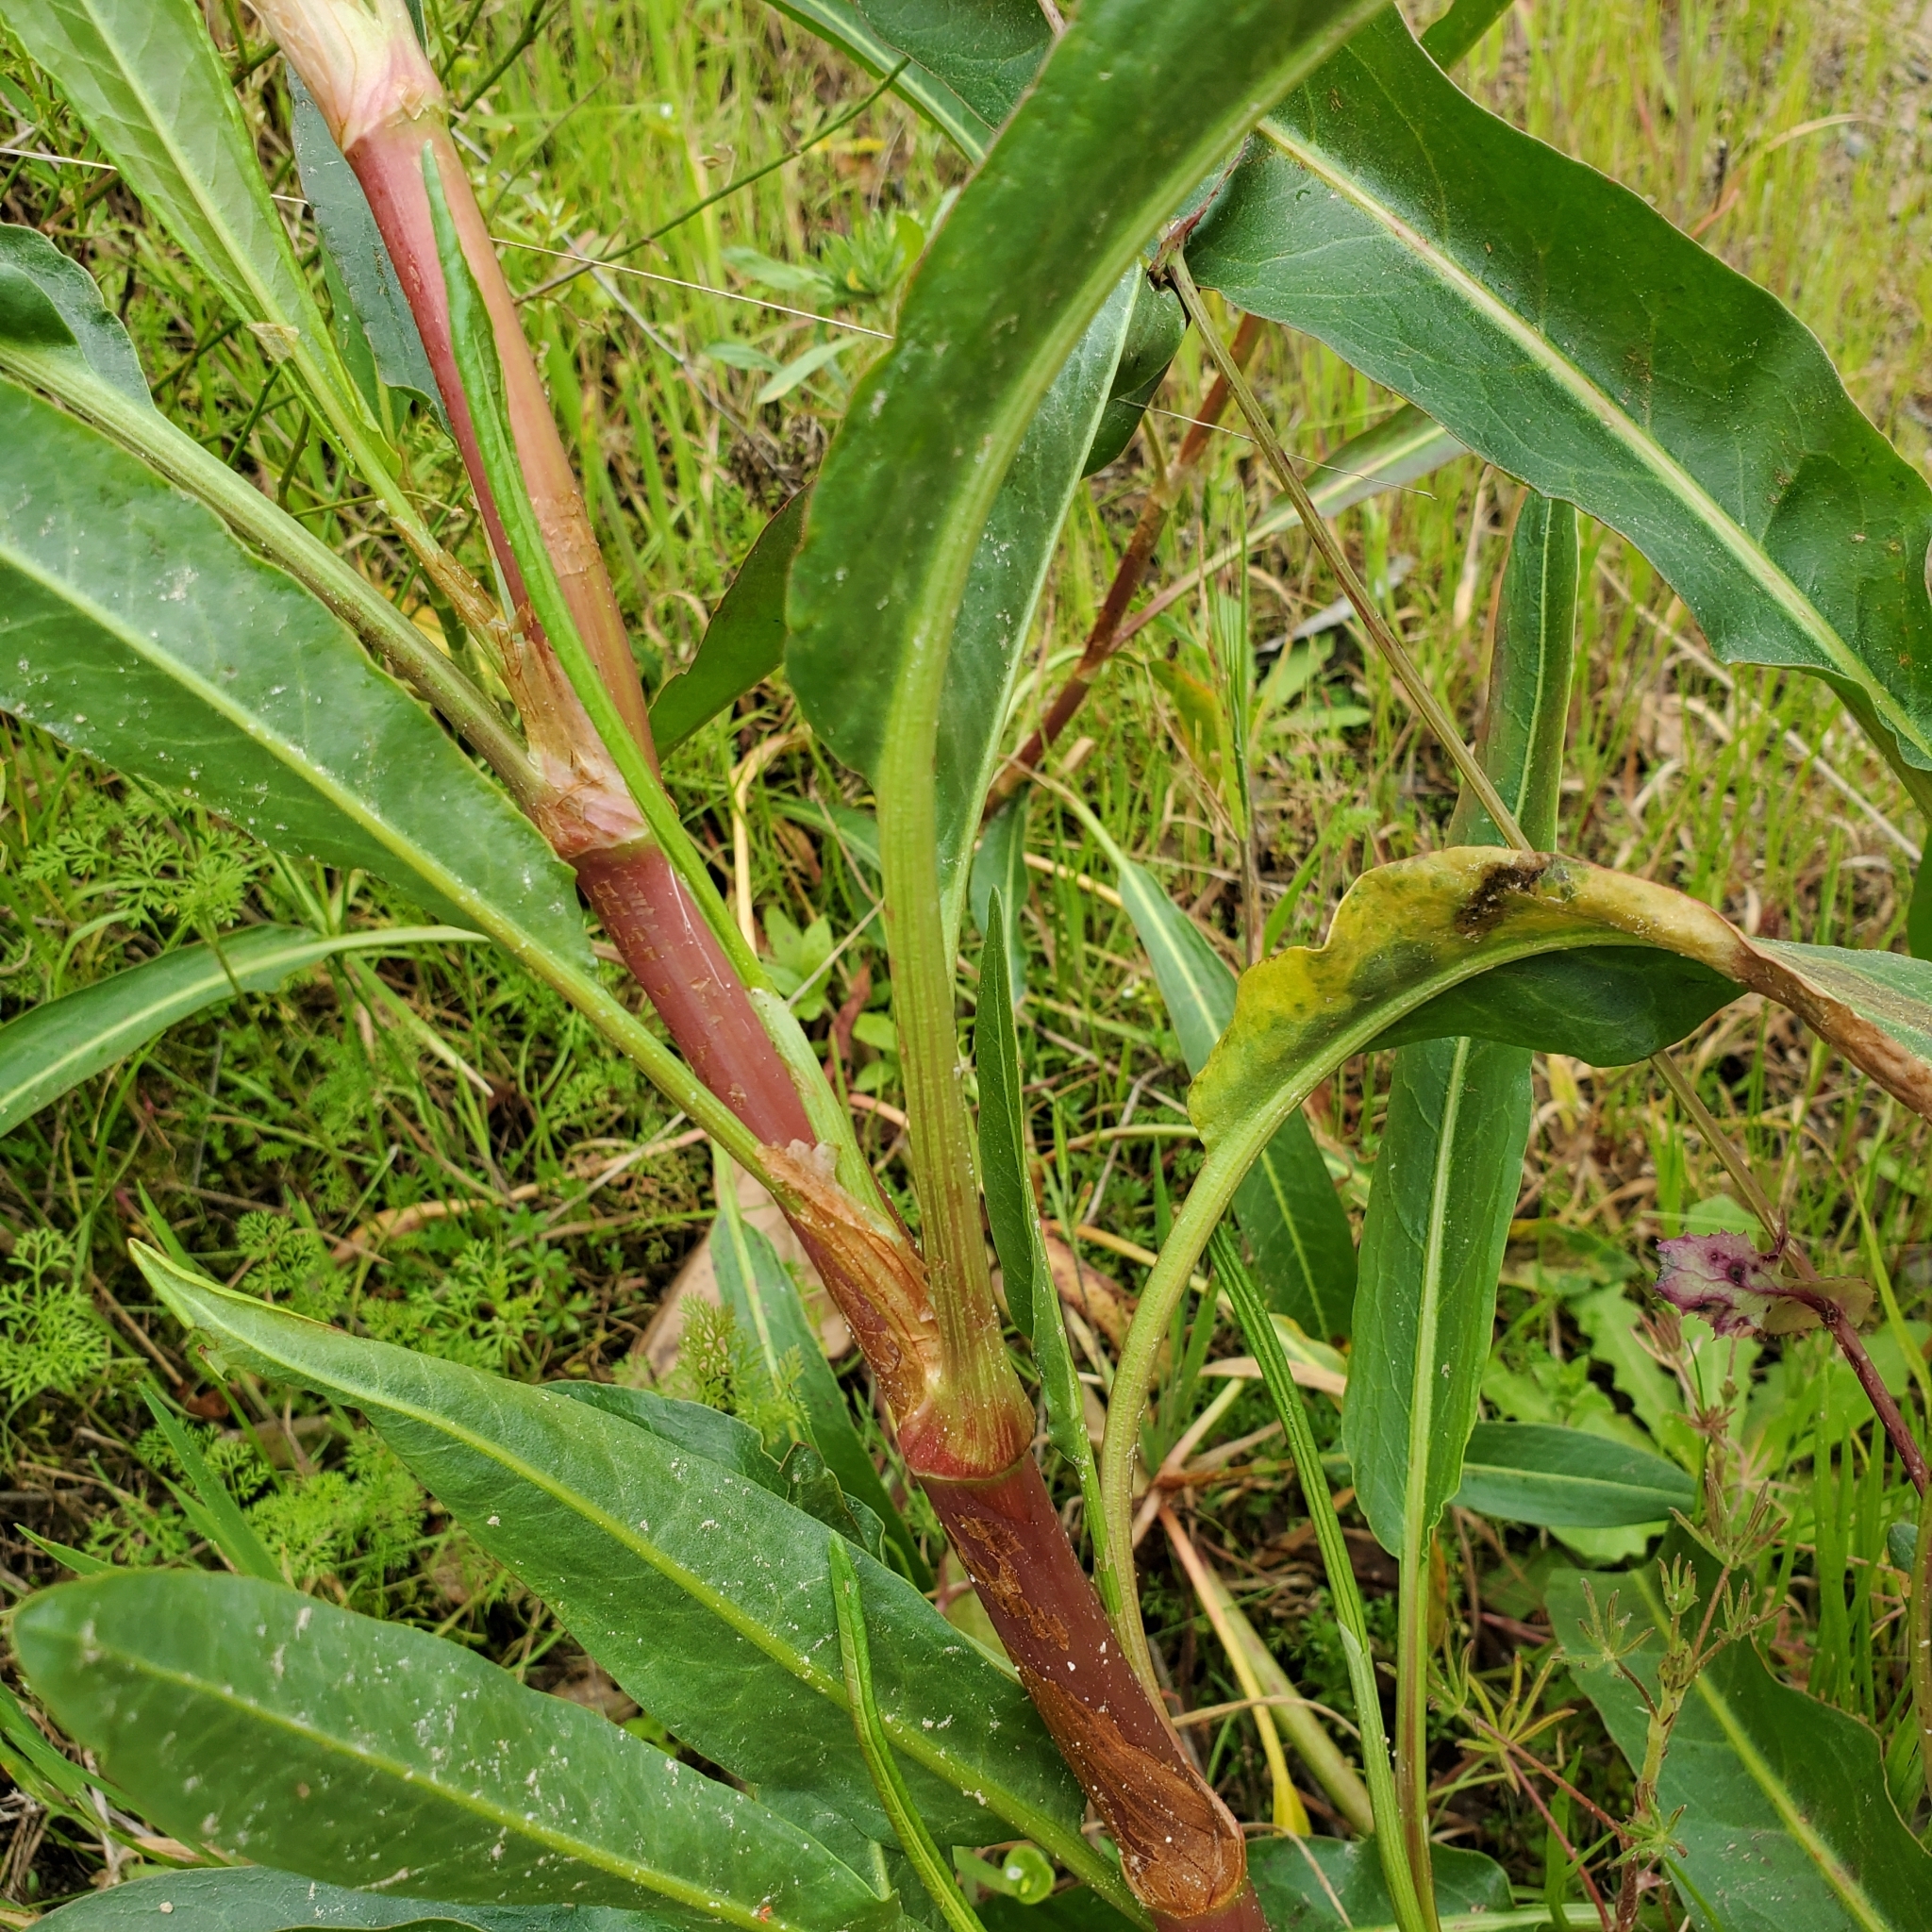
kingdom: Plantae
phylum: Tracheophyta
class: Magnoliopsida
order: Caryophyllales
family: Polygonaceae
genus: Rumex
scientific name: Rumex salicifolius
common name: Willow-leaved dock
